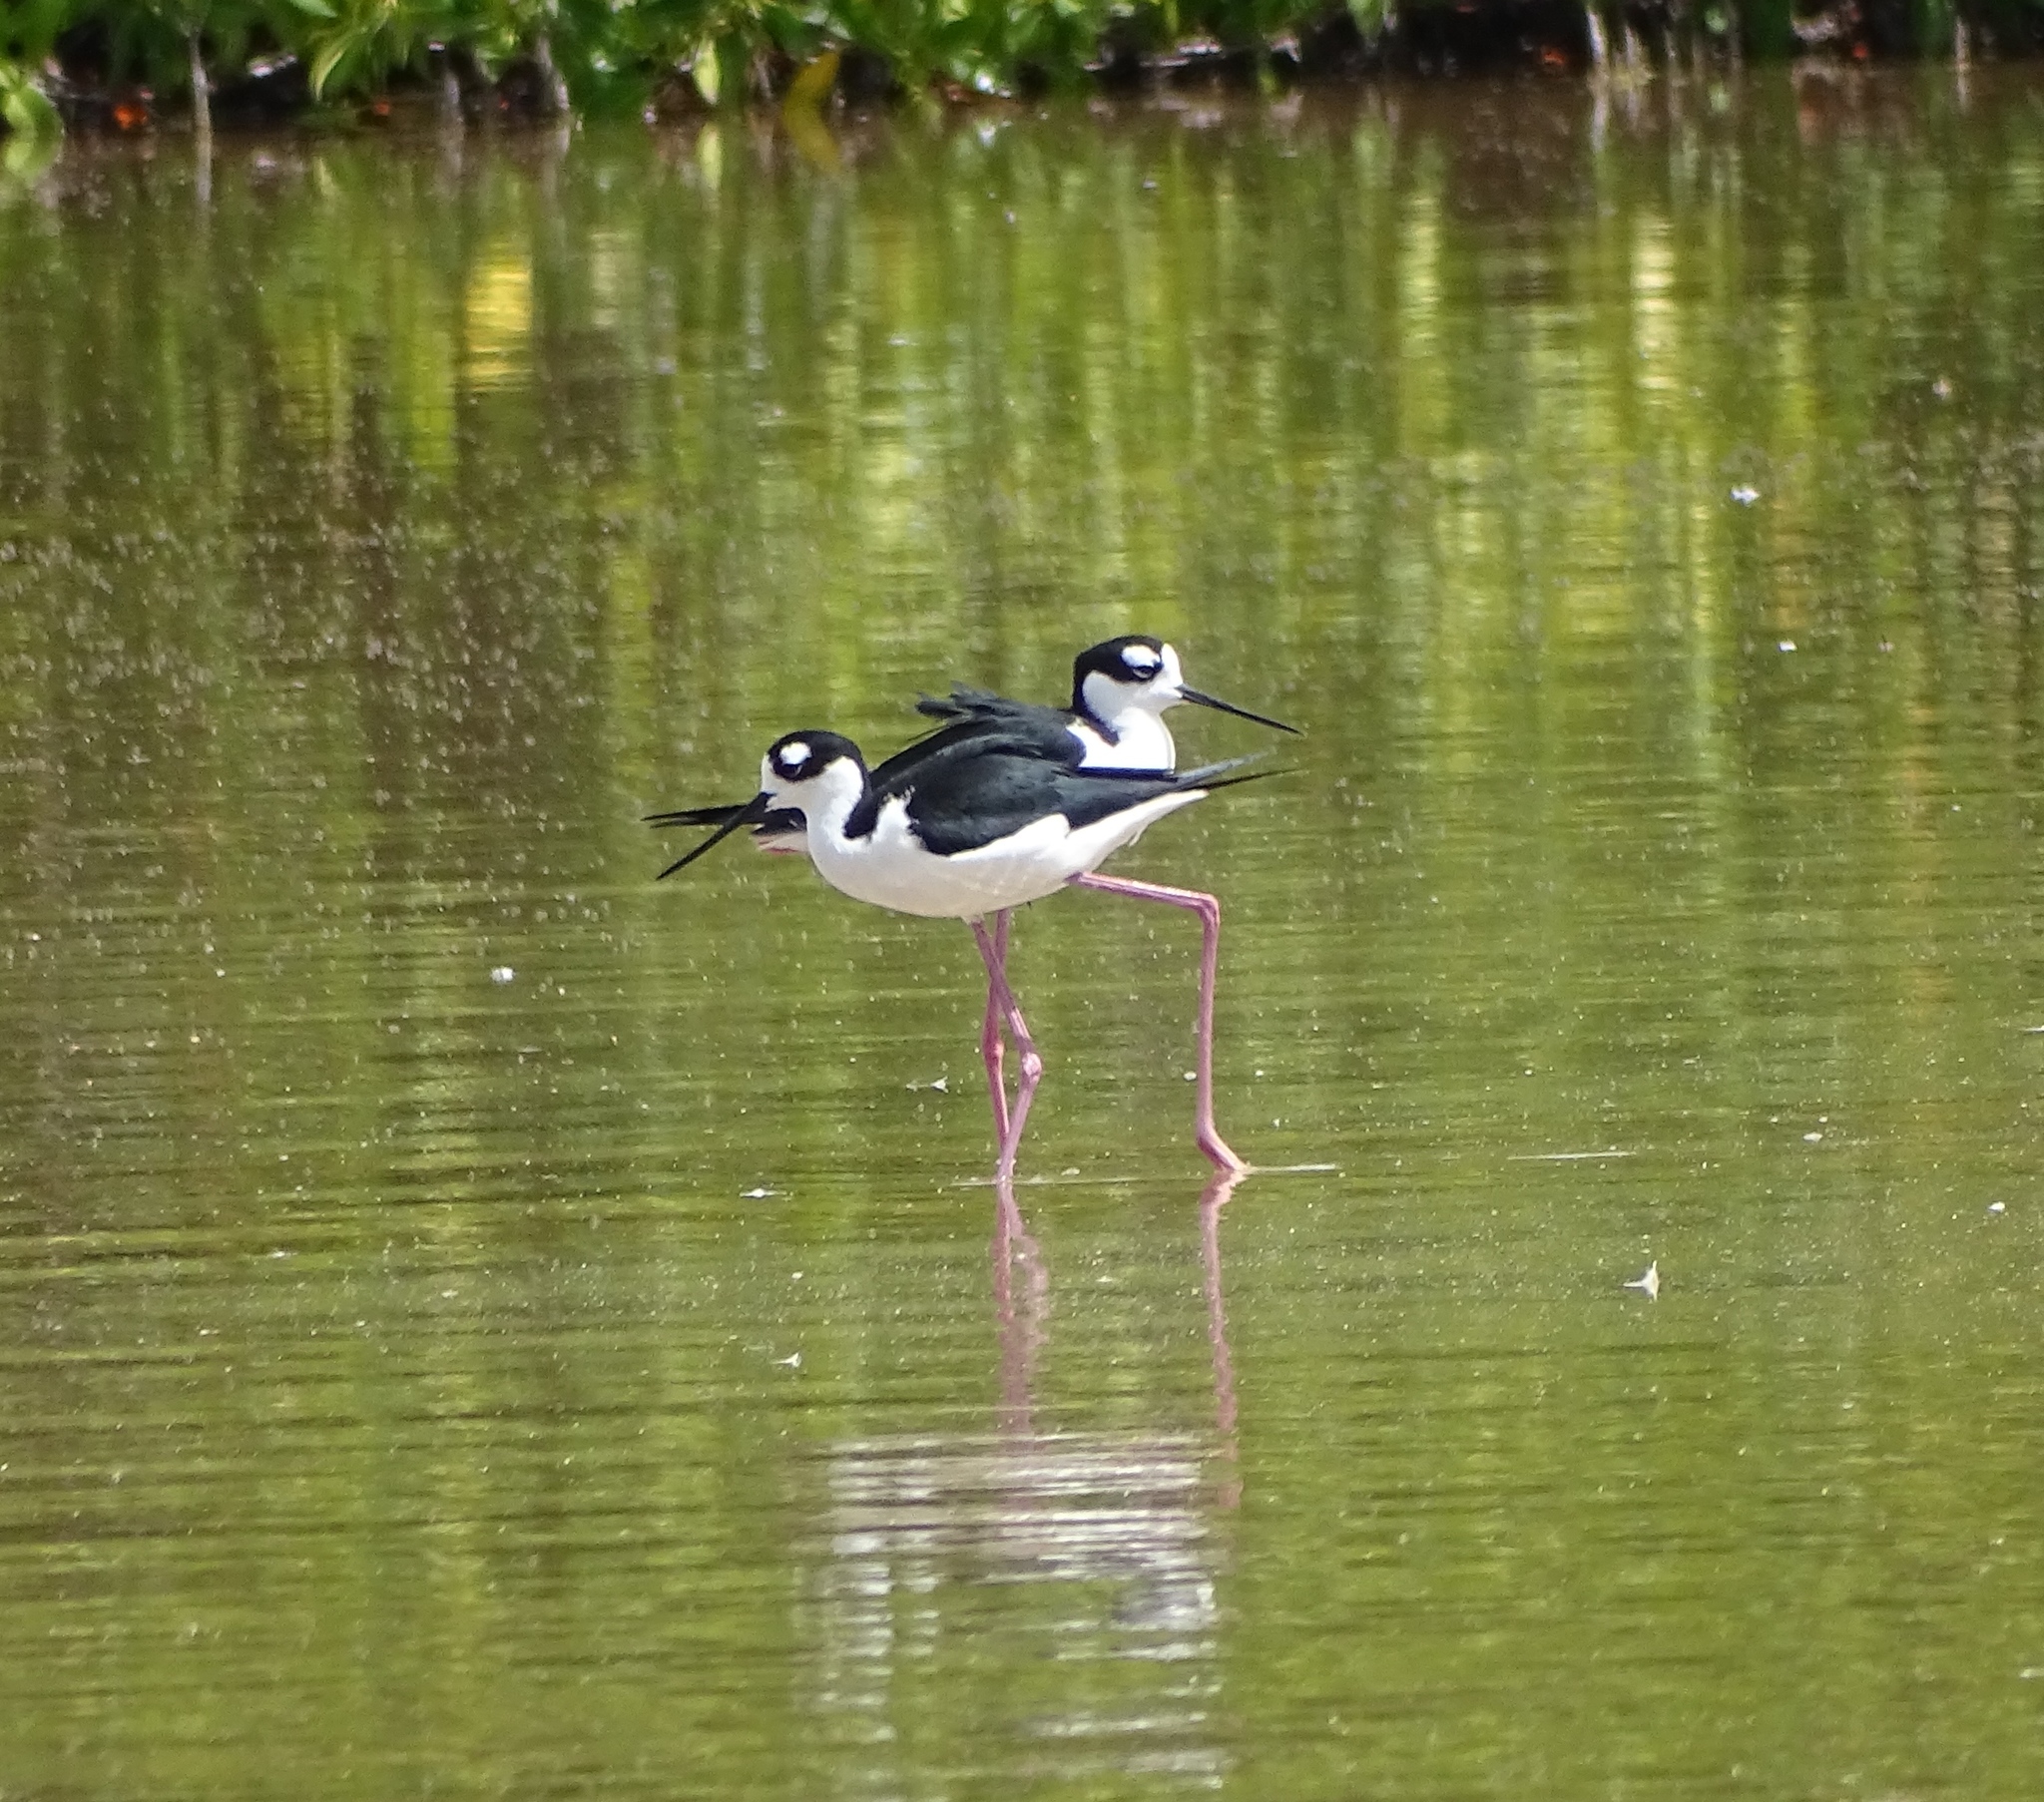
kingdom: Animalia
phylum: Chordata
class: Aves
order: Charadriiformes
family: Recurvirostridae
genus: Himantopus
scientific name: Himantopus mexicanus
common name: Black-necked stilt
